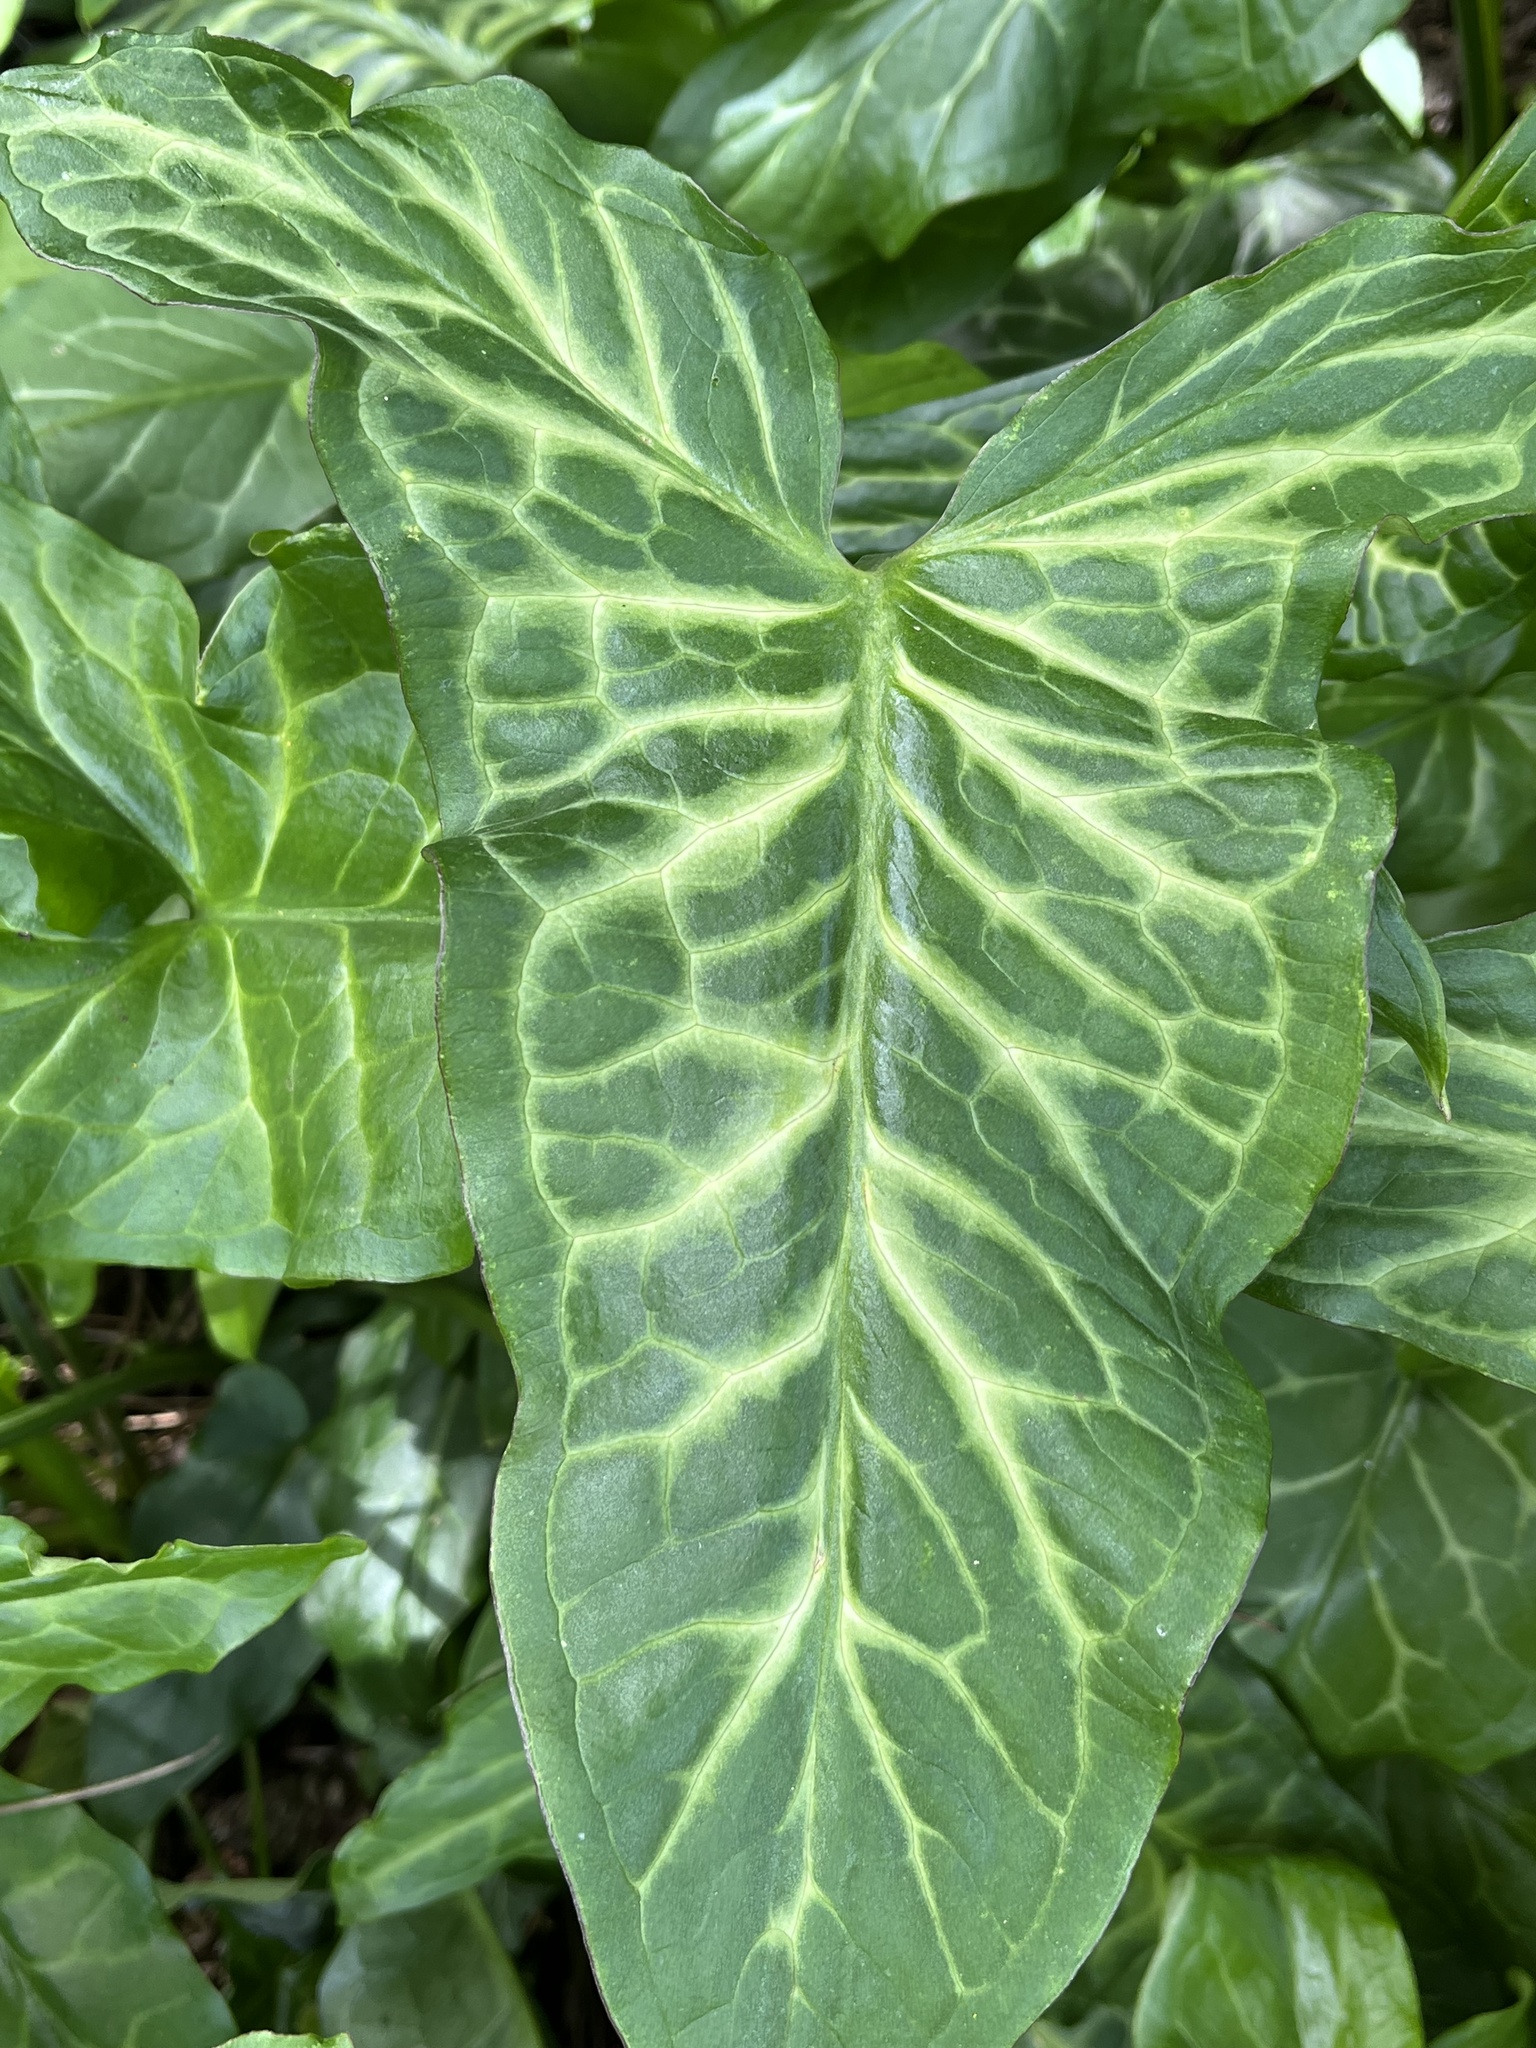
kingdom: Plantae
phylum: Tracheophyta
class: Liliopsida
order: Alismatales
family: Araceae
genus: Arum
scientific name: Arum italicum
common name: Italian lords-and-ladies
